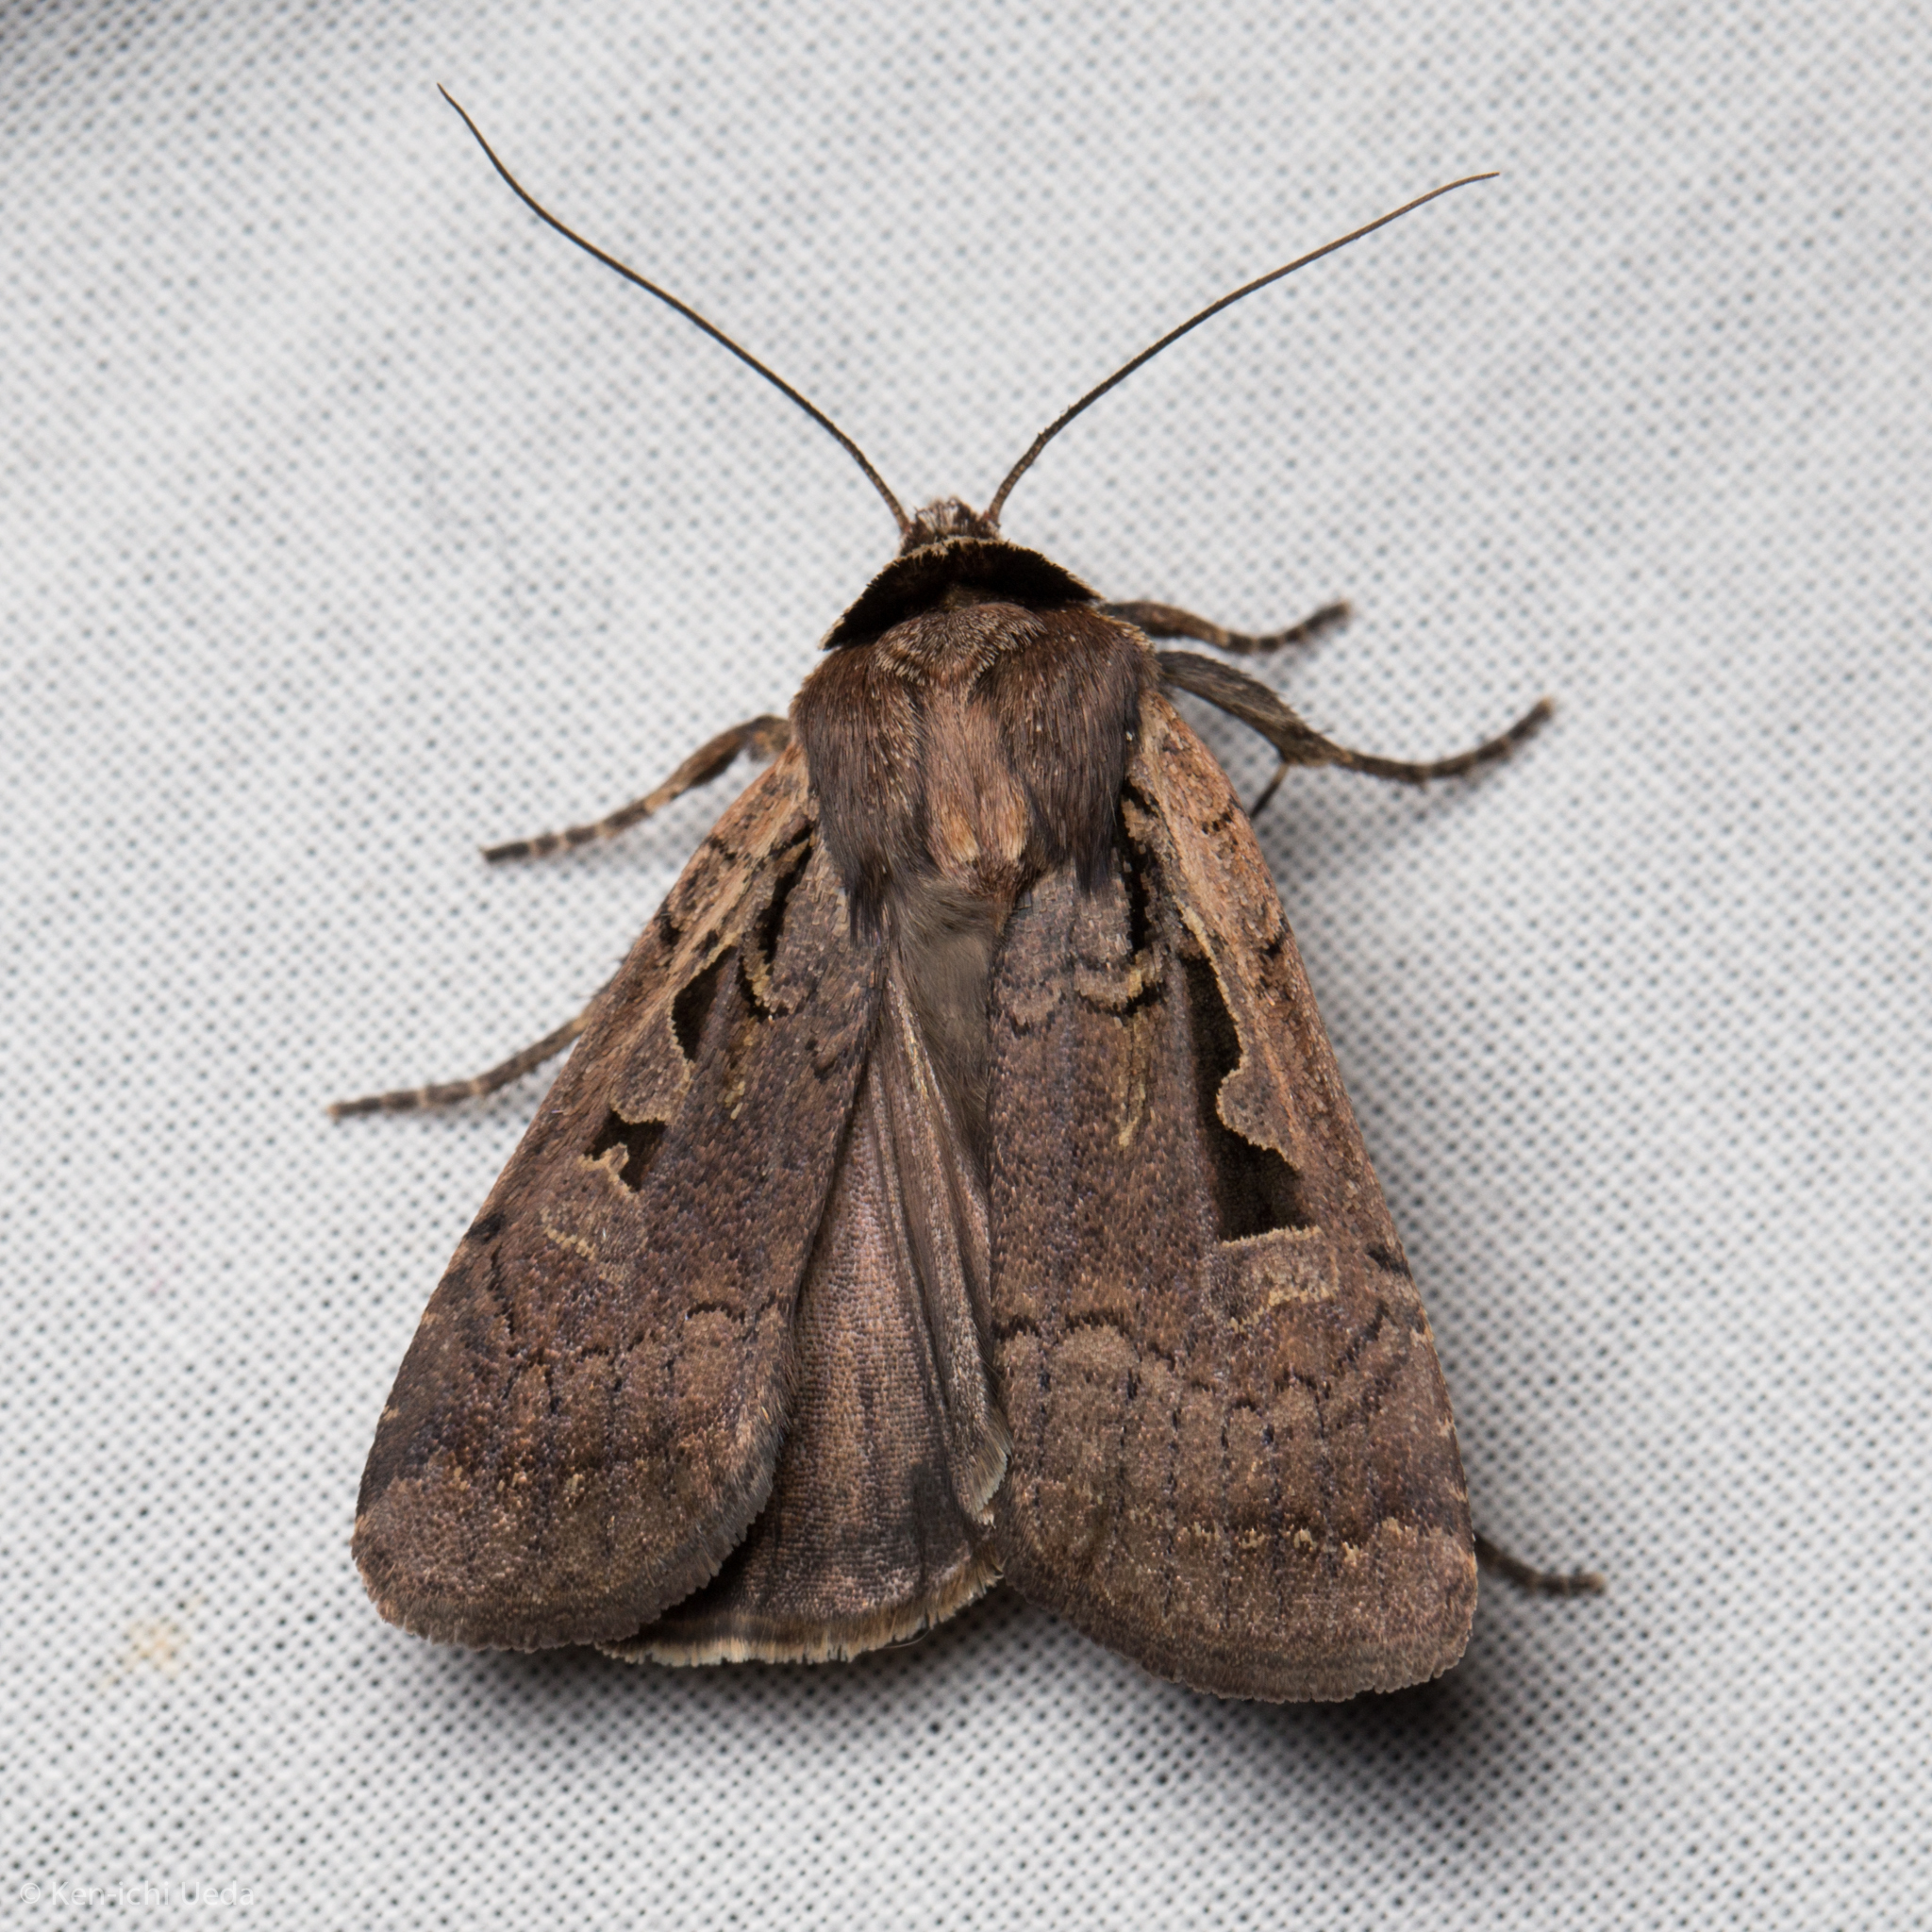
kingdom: Animalia
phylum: Arthropoda
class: Insecta
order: Lepidoptera
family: Noctuidae
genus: Parabagrotis
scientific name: Parabagrotis formalis
